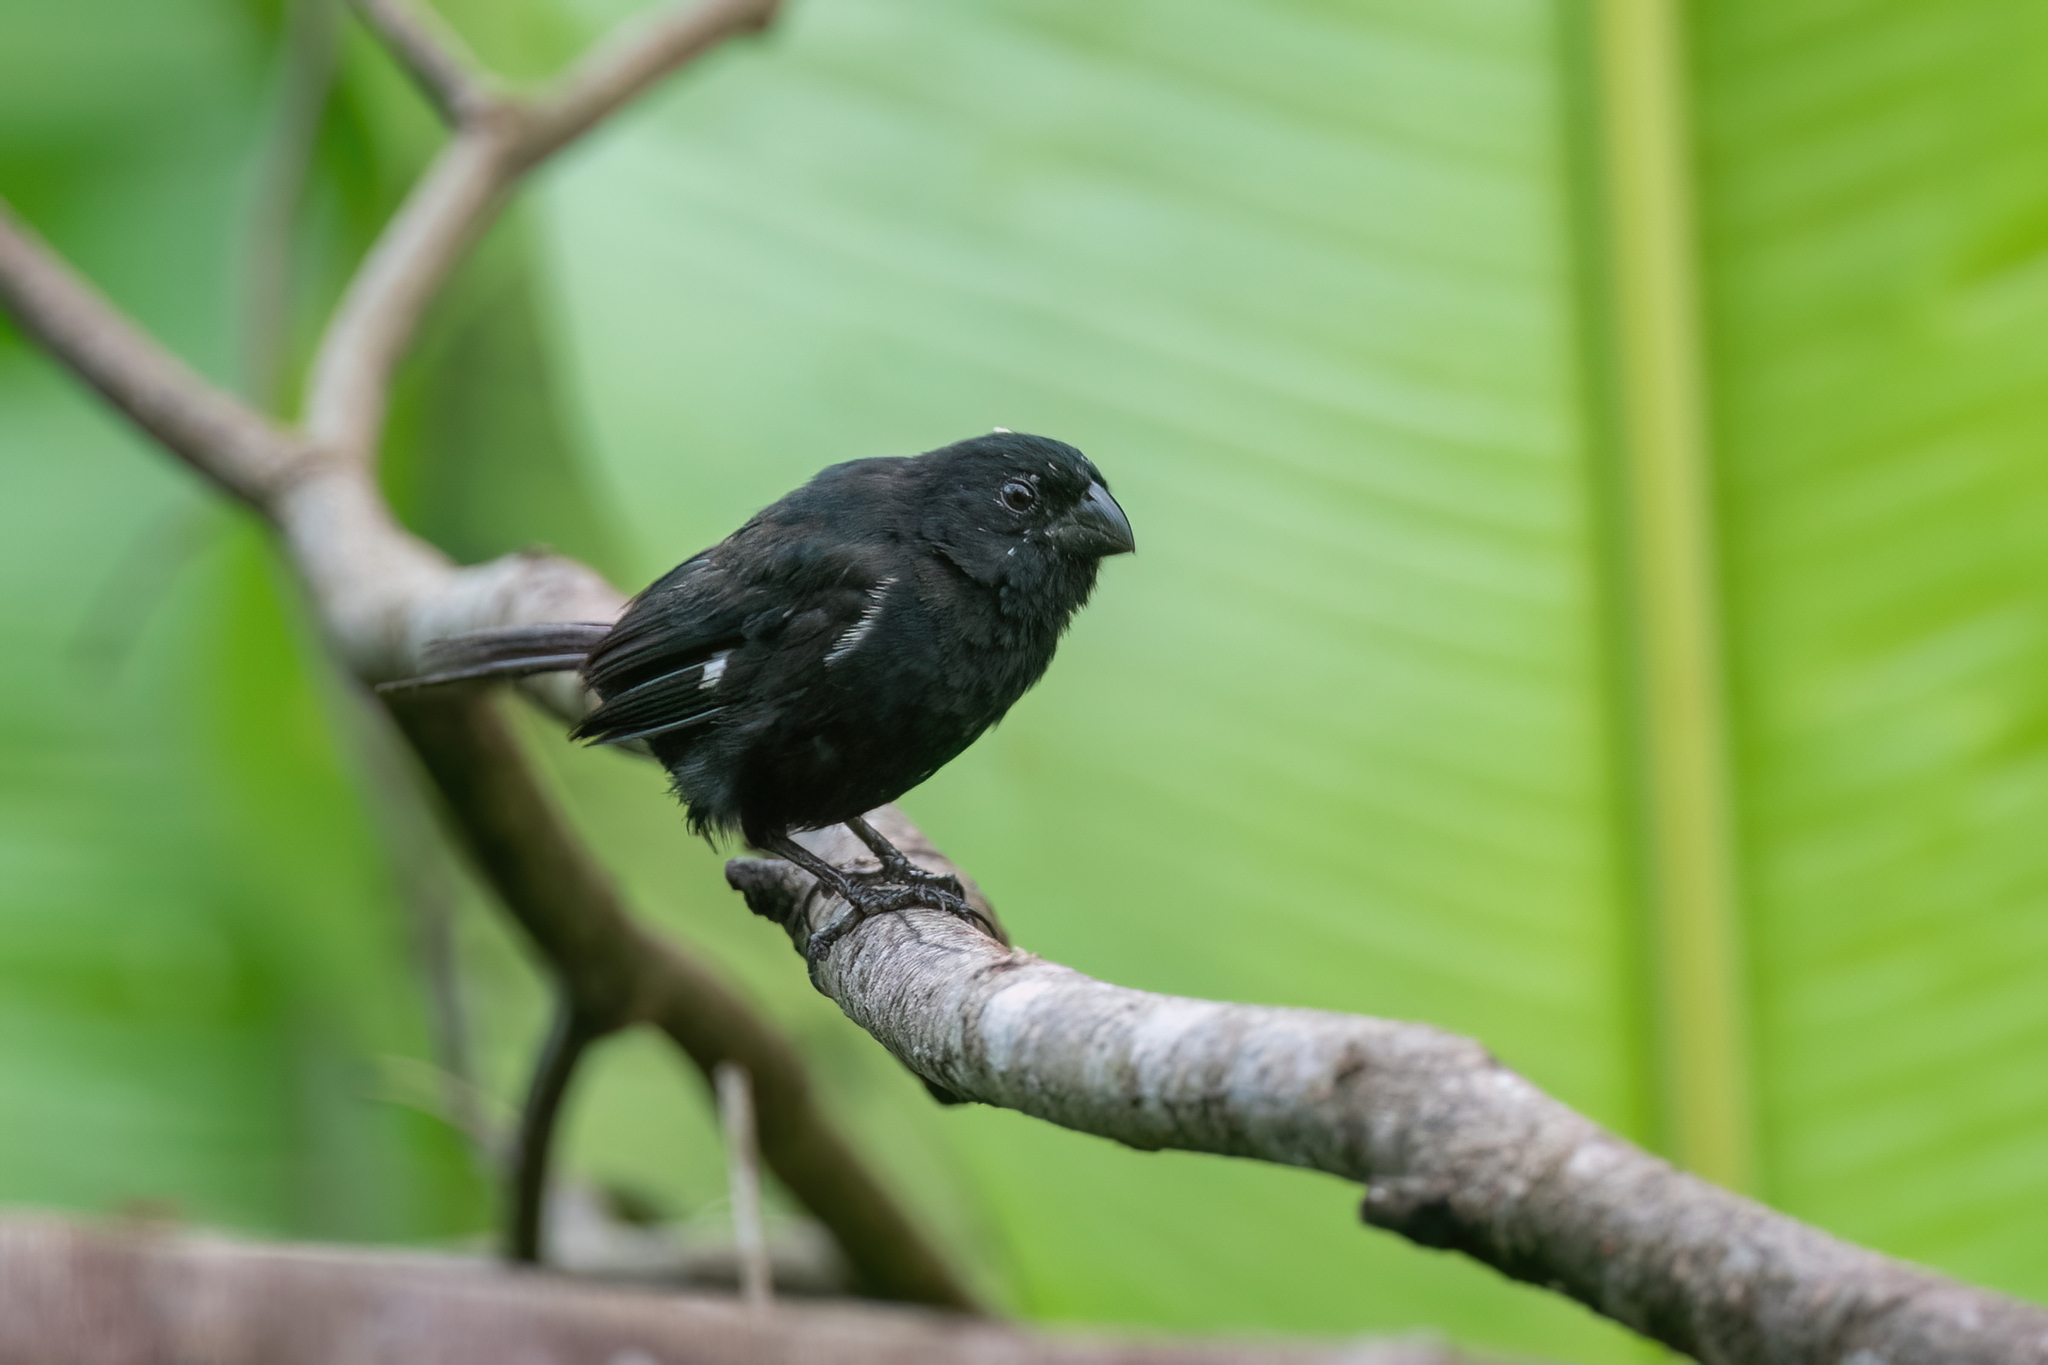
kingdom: Animalia
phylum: Chordata
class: Aves
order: Passeriformes
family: Thraupidae
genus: Sporophila
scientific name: Sporophila corvina
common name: Variable seedeater
